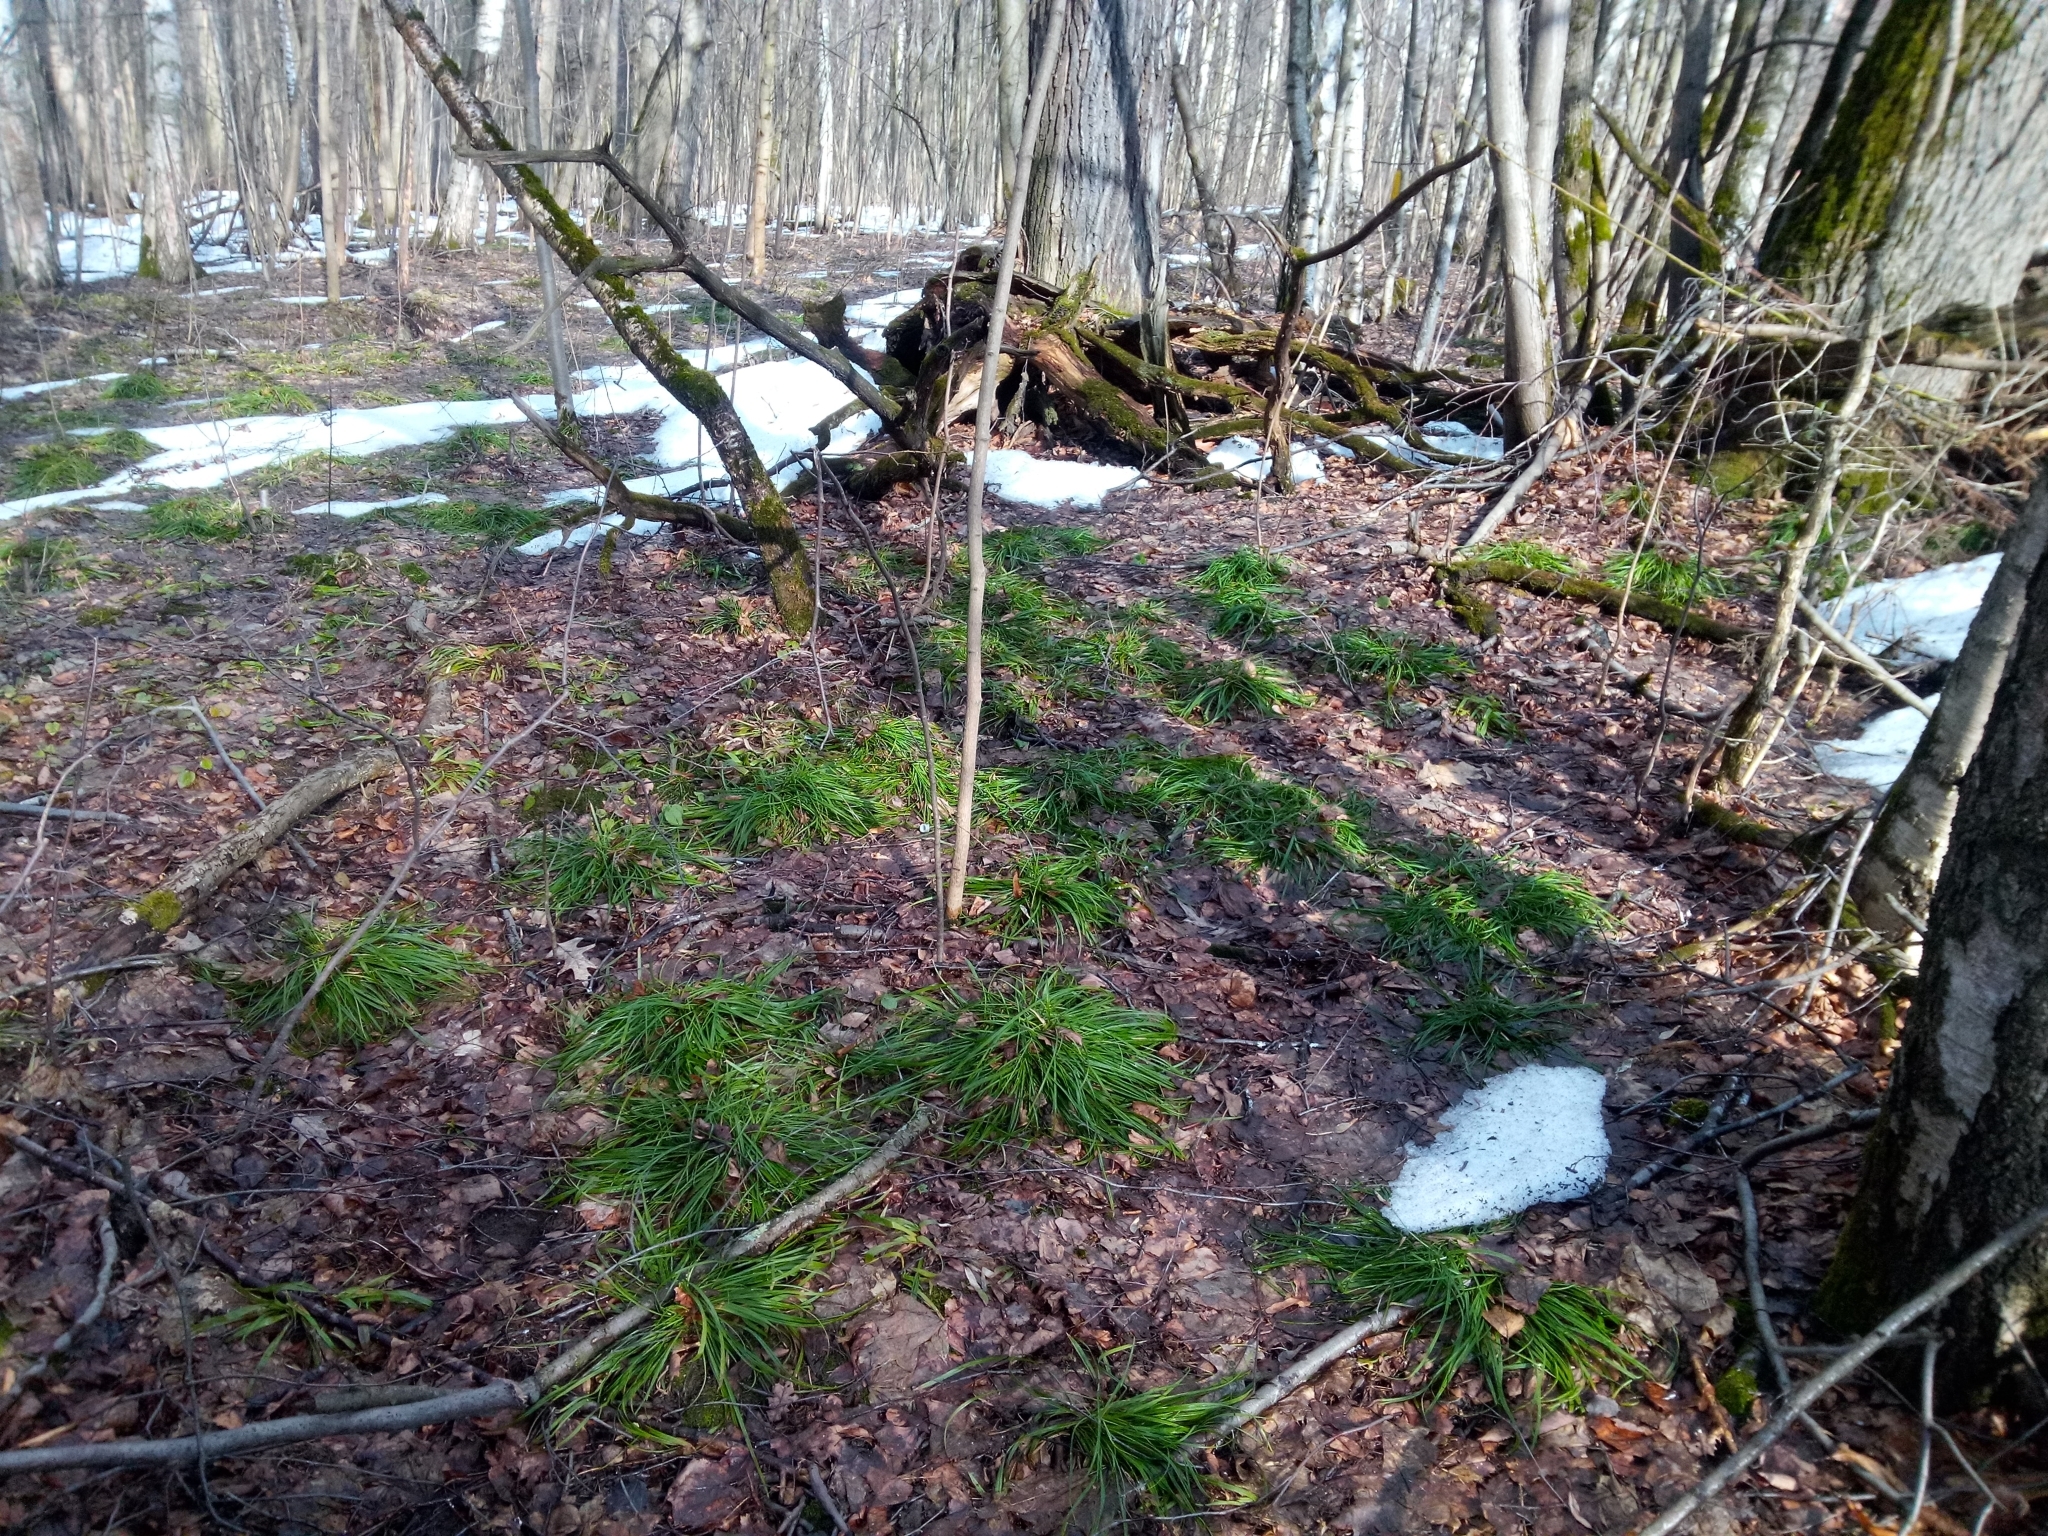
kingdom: Plantae
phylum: Tracheophyta
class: Liliopsida
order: Poales
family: Cyperaceae
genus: Carex
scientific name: Carex sylvatica
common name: Wood-sedge
